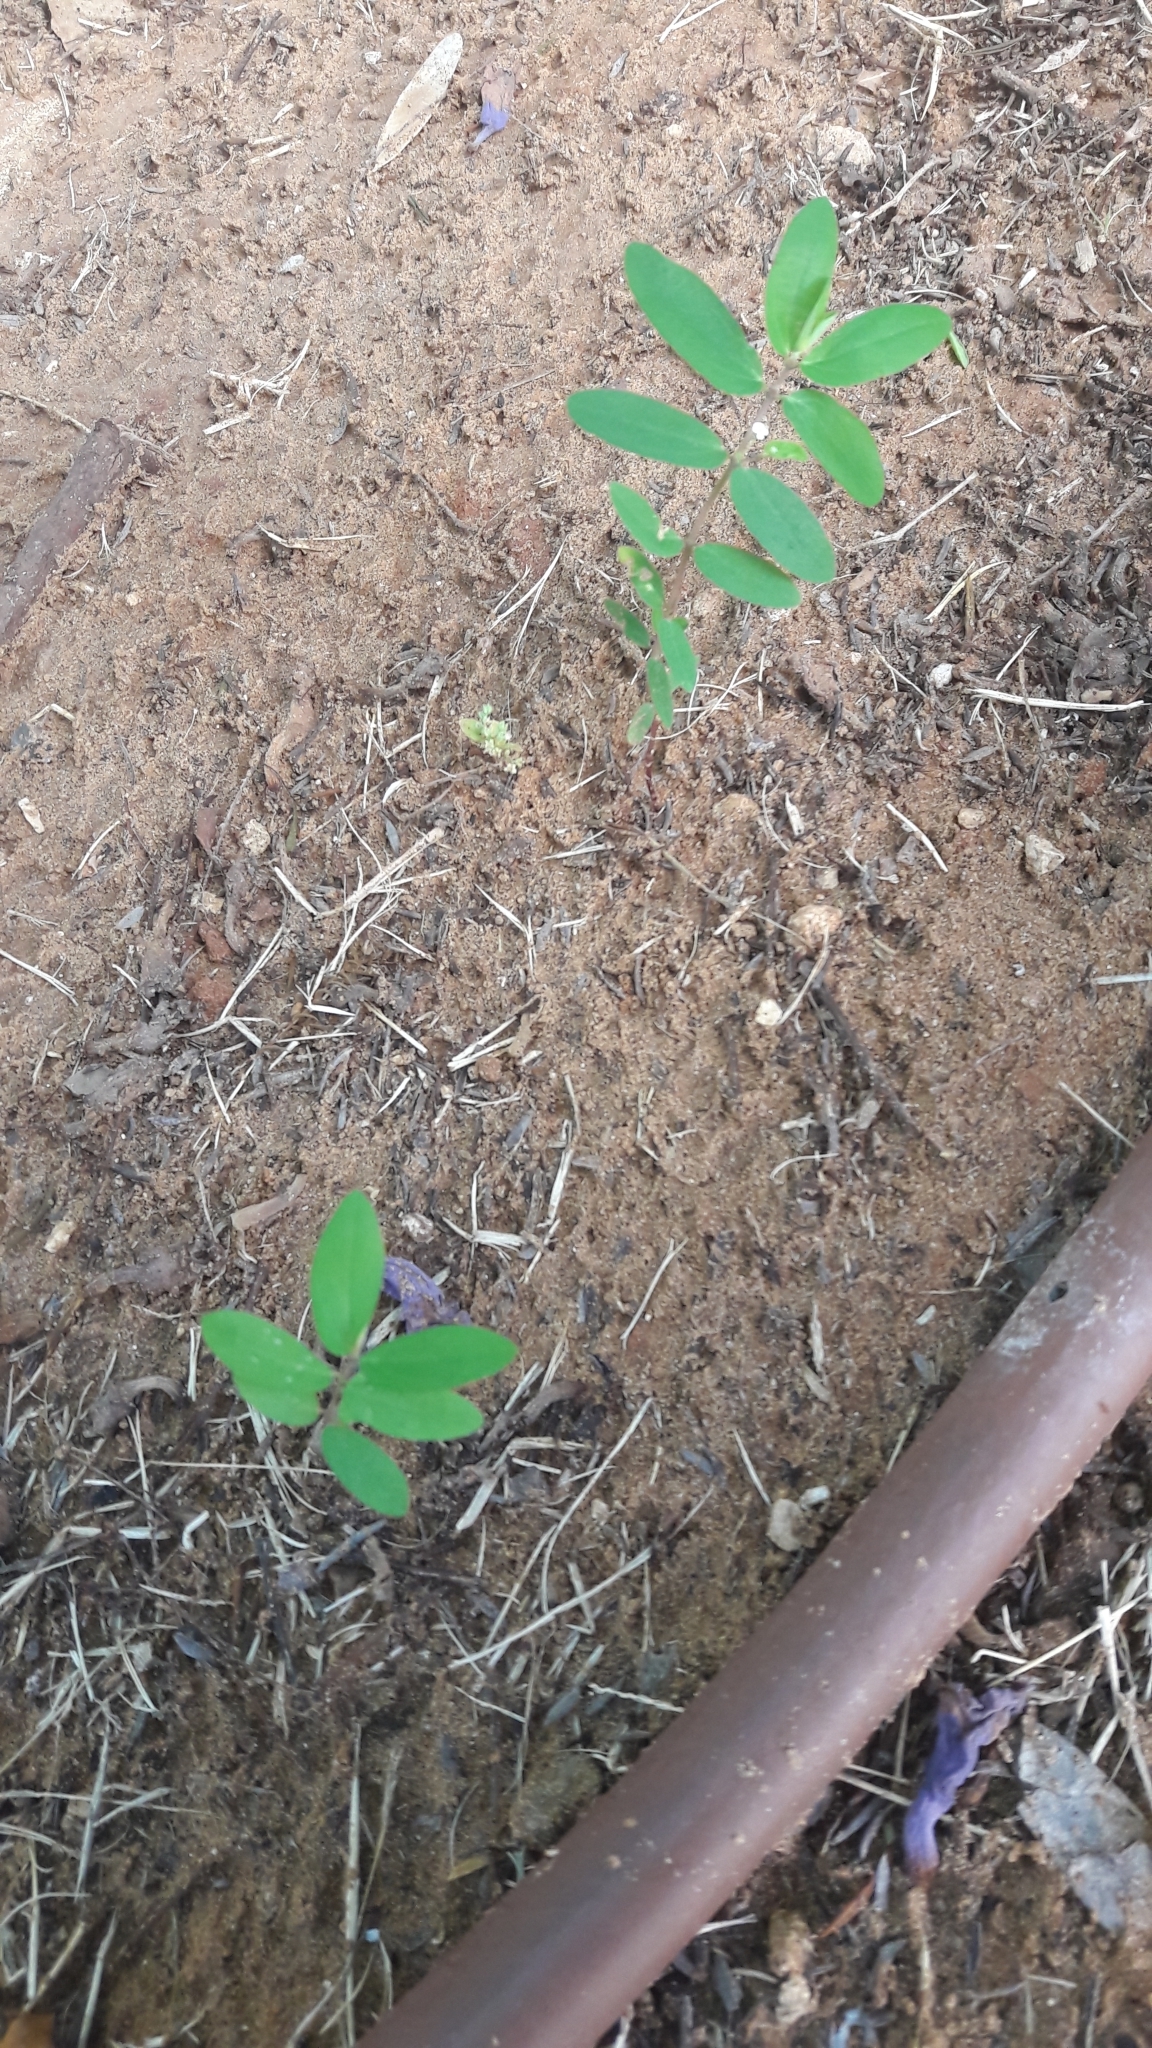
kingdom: Plantae
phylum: Tracheophyta
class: Magnoliopsida
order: Malpighiales
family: Euphorbiaceae
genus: Euphorbia
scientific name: Euphorbia hypericifolia
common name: Graceful sandmat
